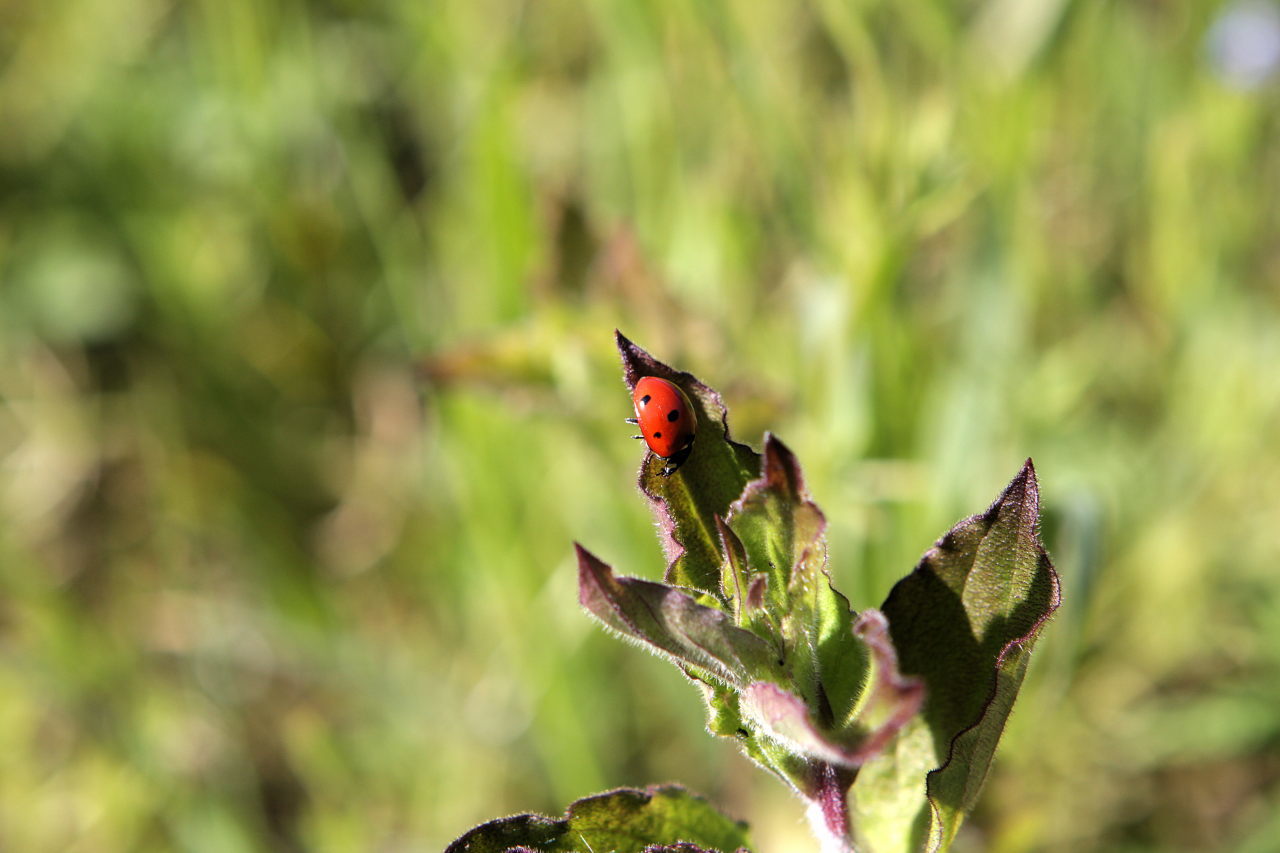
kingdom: Animalia
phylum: Arthropoda
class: Insecta
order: Coleoptera
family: Coccinellidae
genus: Coccinella
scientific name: Coccinella septempunctata
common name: Sevenspotted lady beetle
